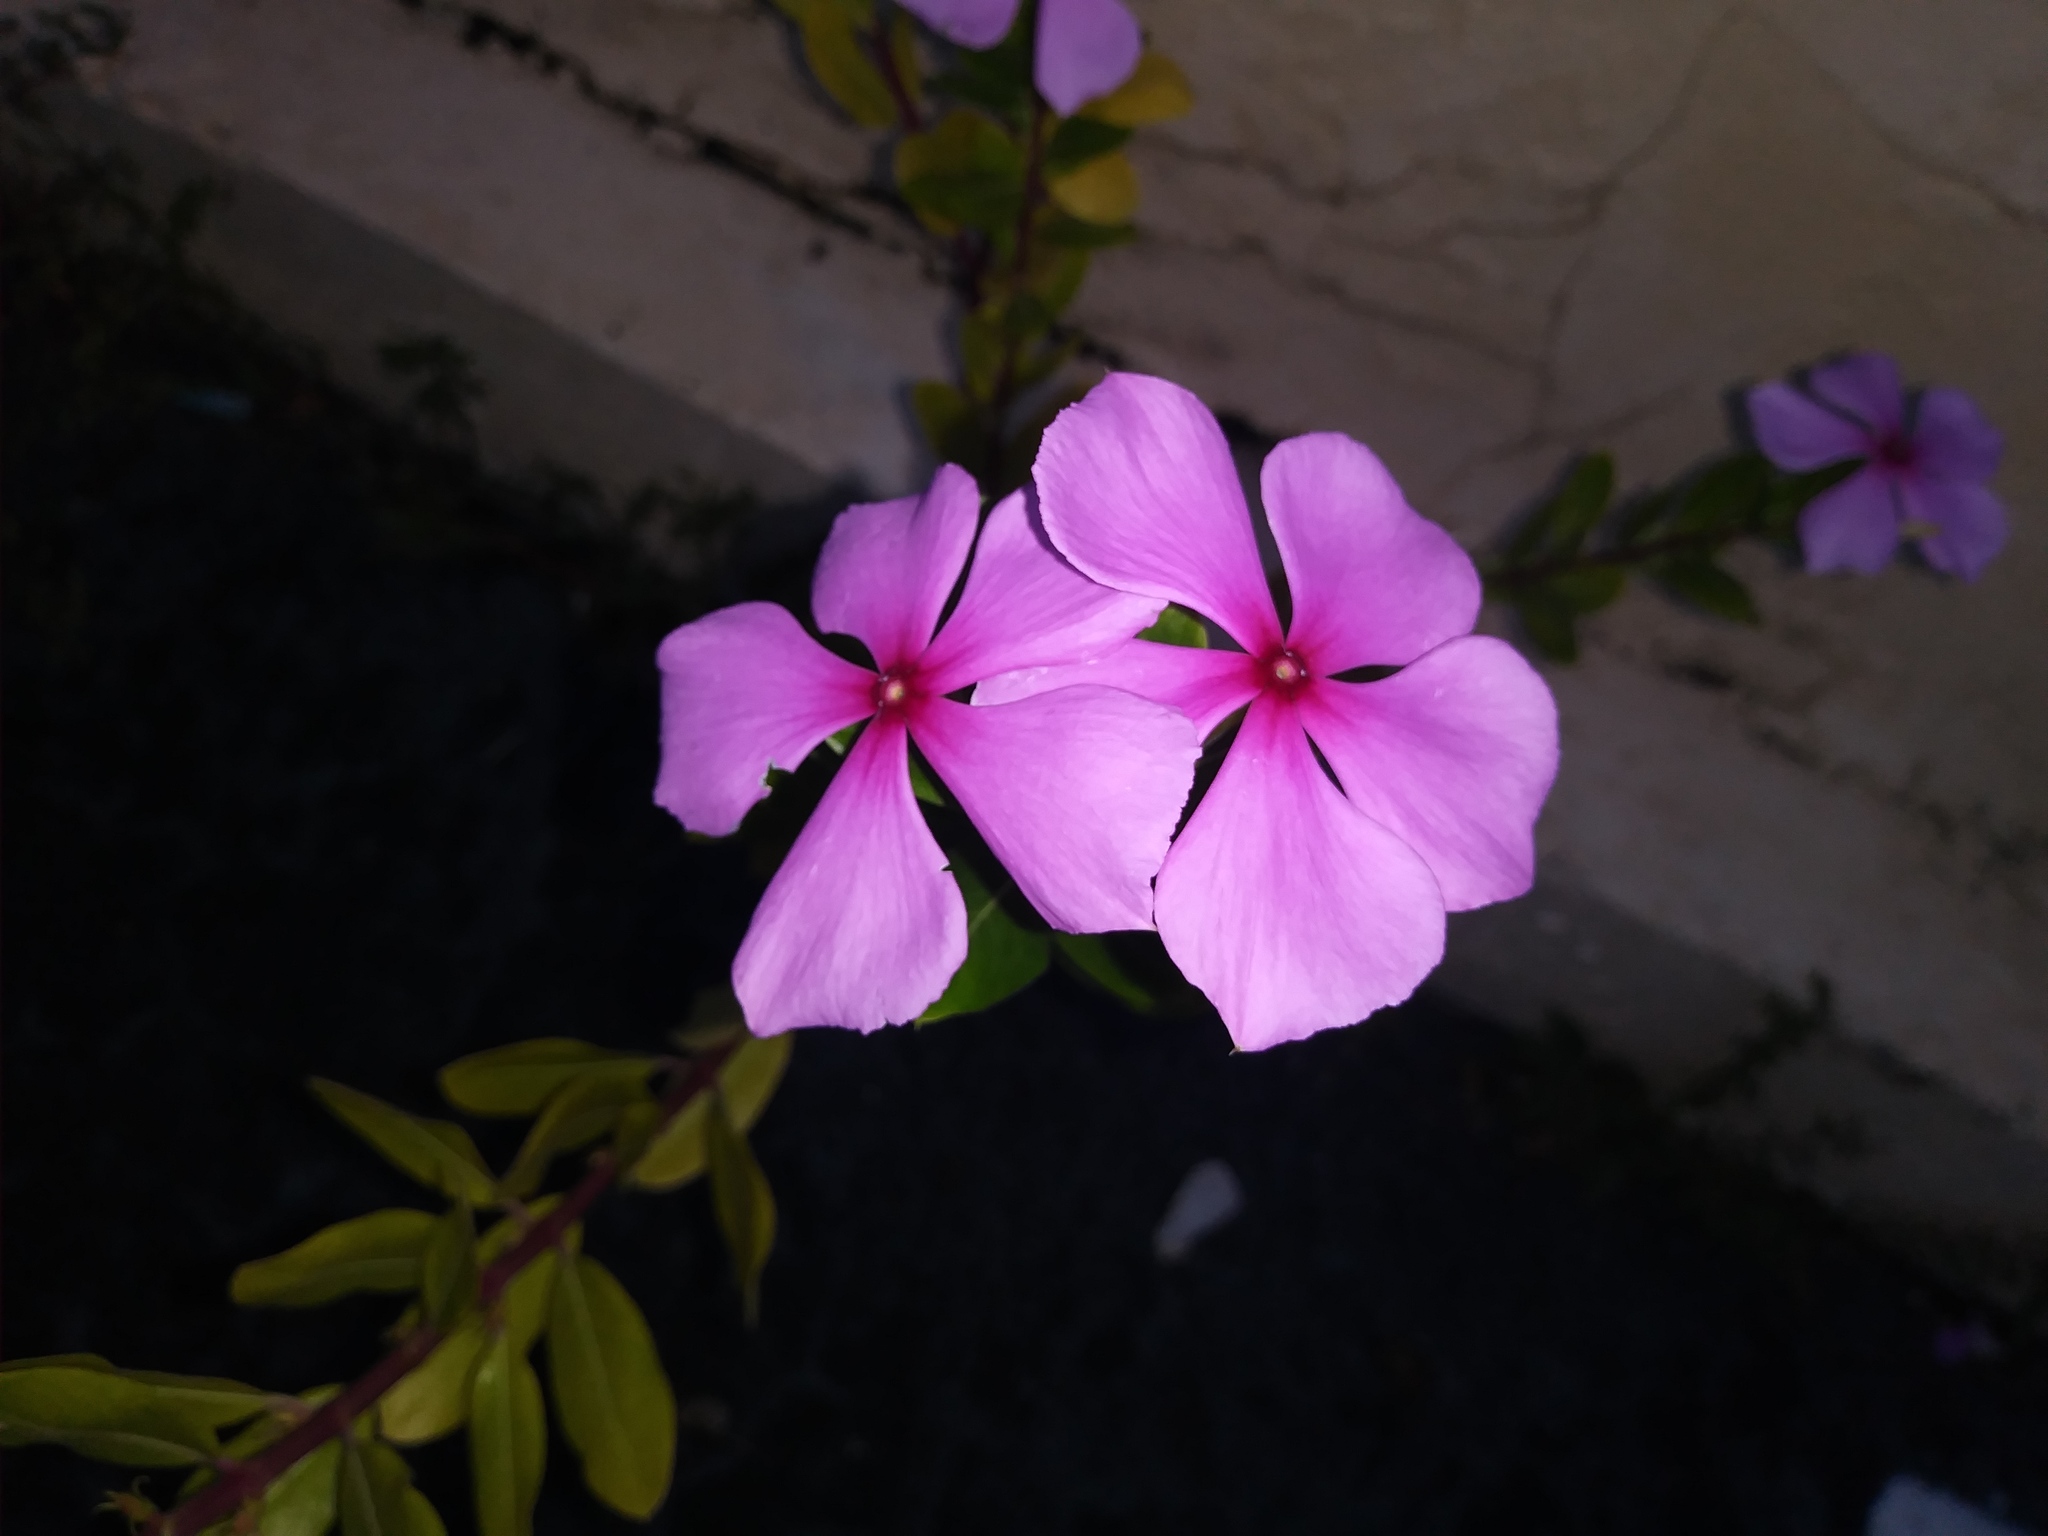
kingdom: Plantae
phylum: Tracheophyta
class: Magnoliopsida
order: Gentianales
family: Apocynaceae
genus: Catharanthus
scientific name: Catharanthus roseus
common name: Madagascar periwinkle
